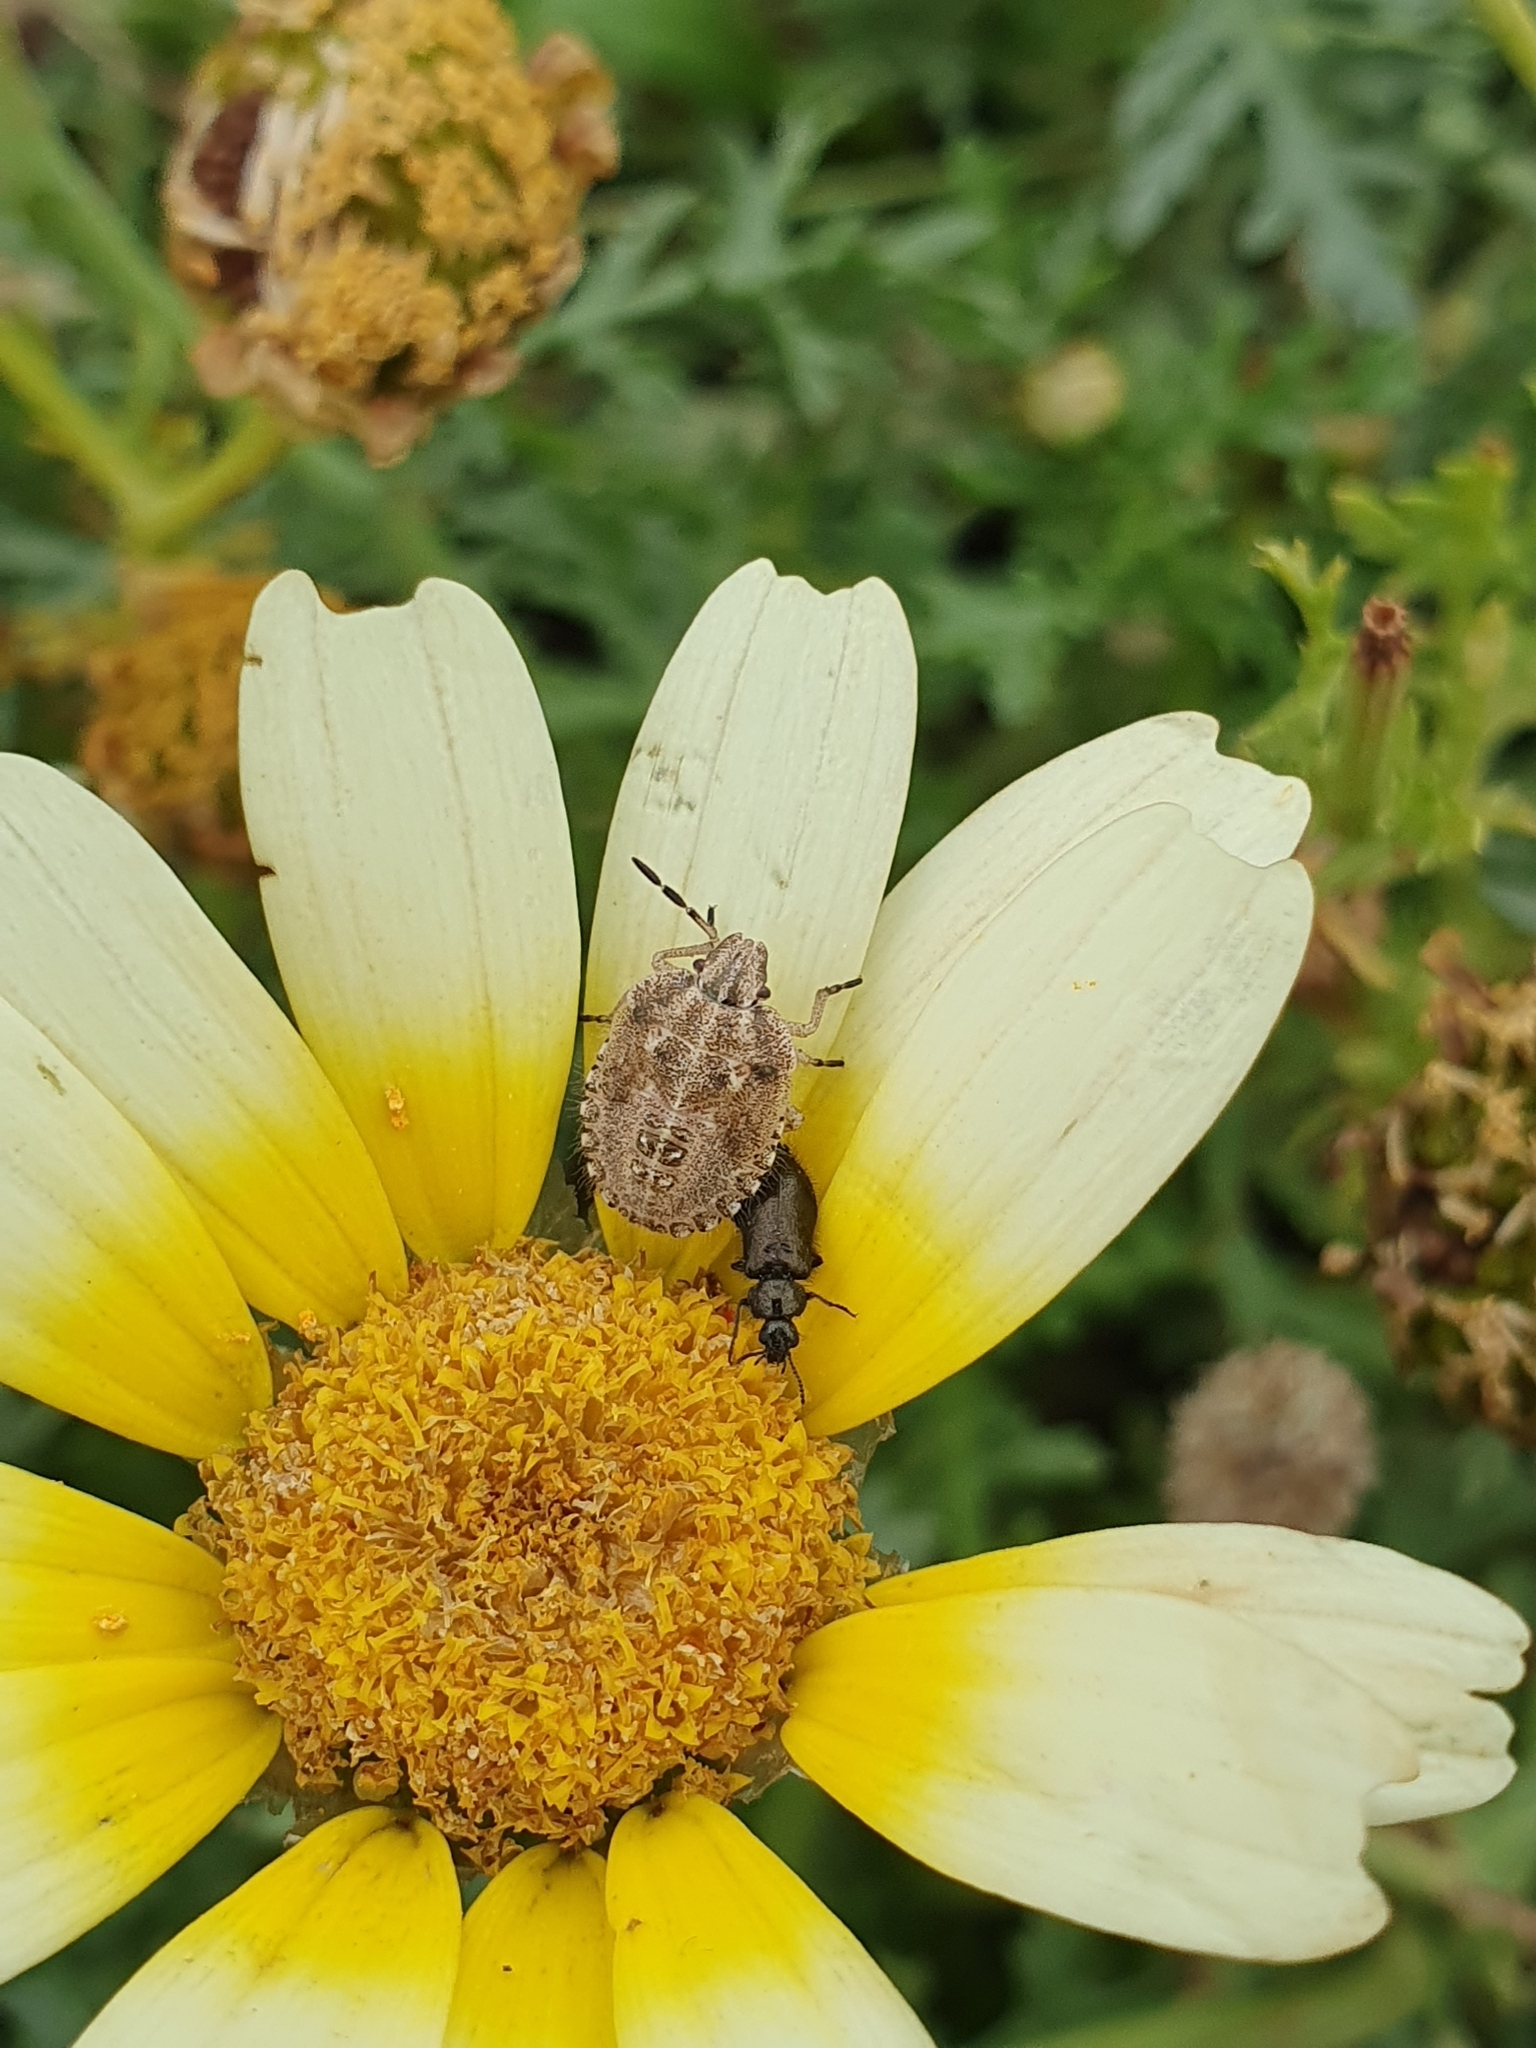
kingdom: Animalia
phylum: Arthropoda
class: Insecta
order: Hemiptera
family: Pentatomidae
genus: Dolycoris
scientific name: Dolycoris baccarum
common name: Sloe bug
